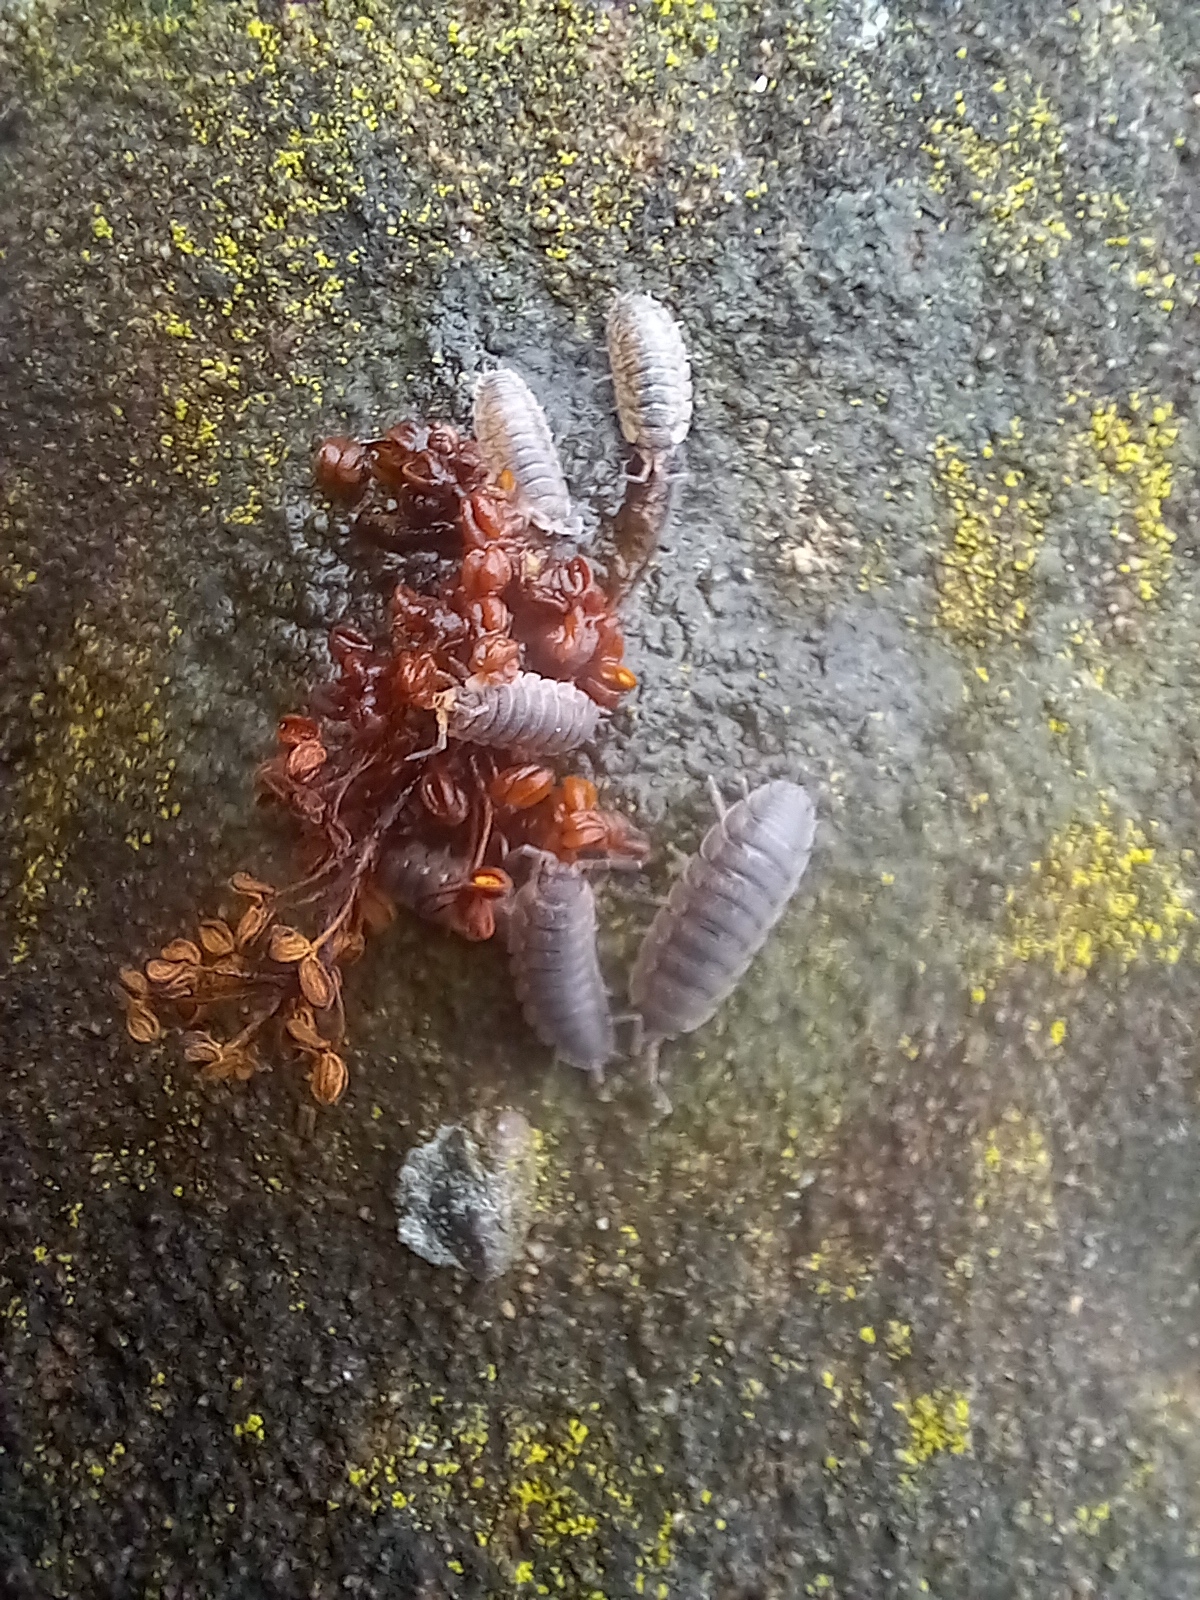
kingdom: Animalia
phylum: Arthropoda
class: Malacostraca
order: Isopoda
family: Porcellionidae
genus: Porcellio
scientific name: Porcellio scaber
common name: Common rough woodlouse
